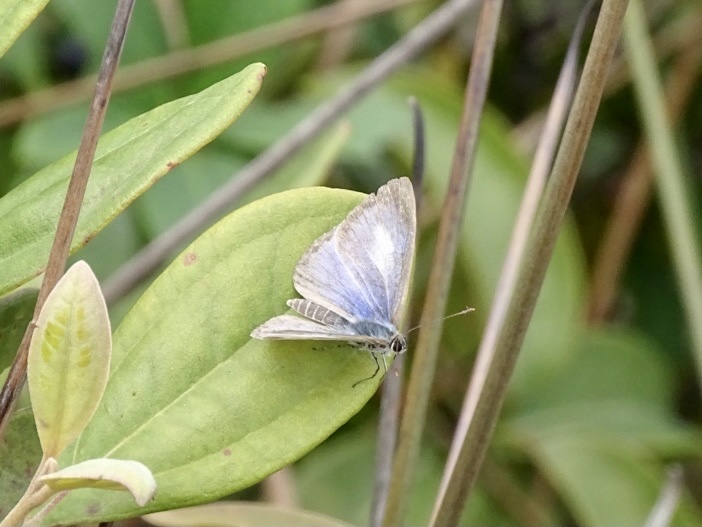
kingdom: Animalia
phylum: Arthropoda
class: Insecta
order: Lepidoptera
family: Lycaenidae
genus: Acytolepis
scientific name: Acytolepis puspa
